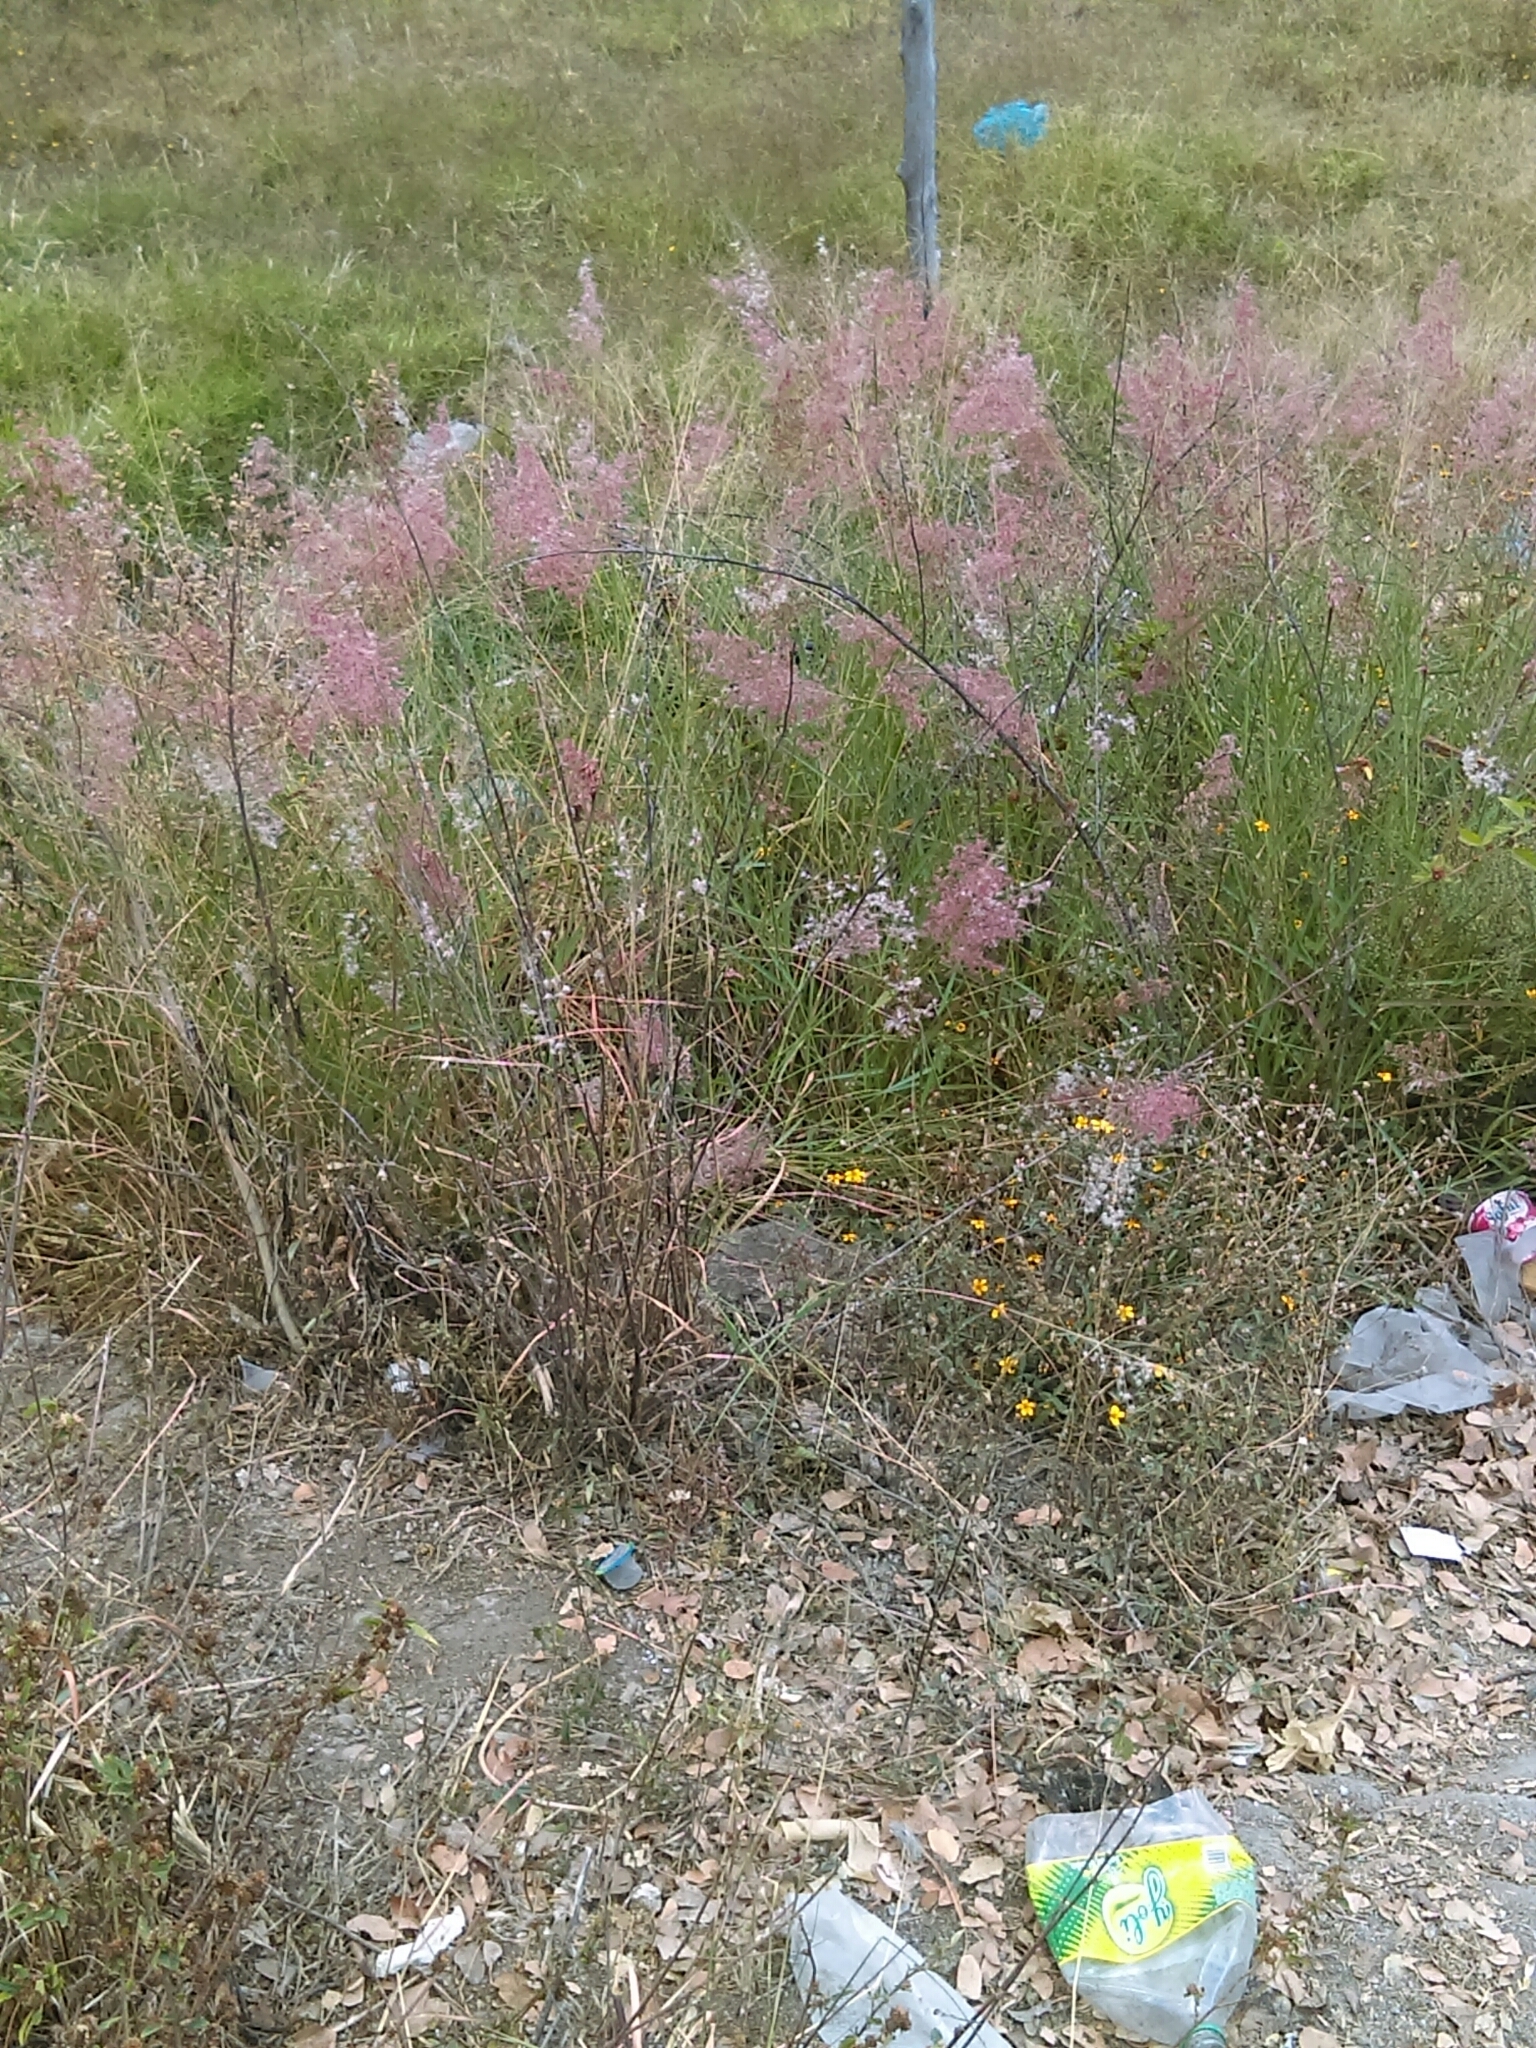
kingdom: Plantae
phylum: Tracheophyta
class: Liliopsida
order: Poales
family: Poaceae
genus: Melinis
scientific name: Melinis repens
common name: Rose natal grass
